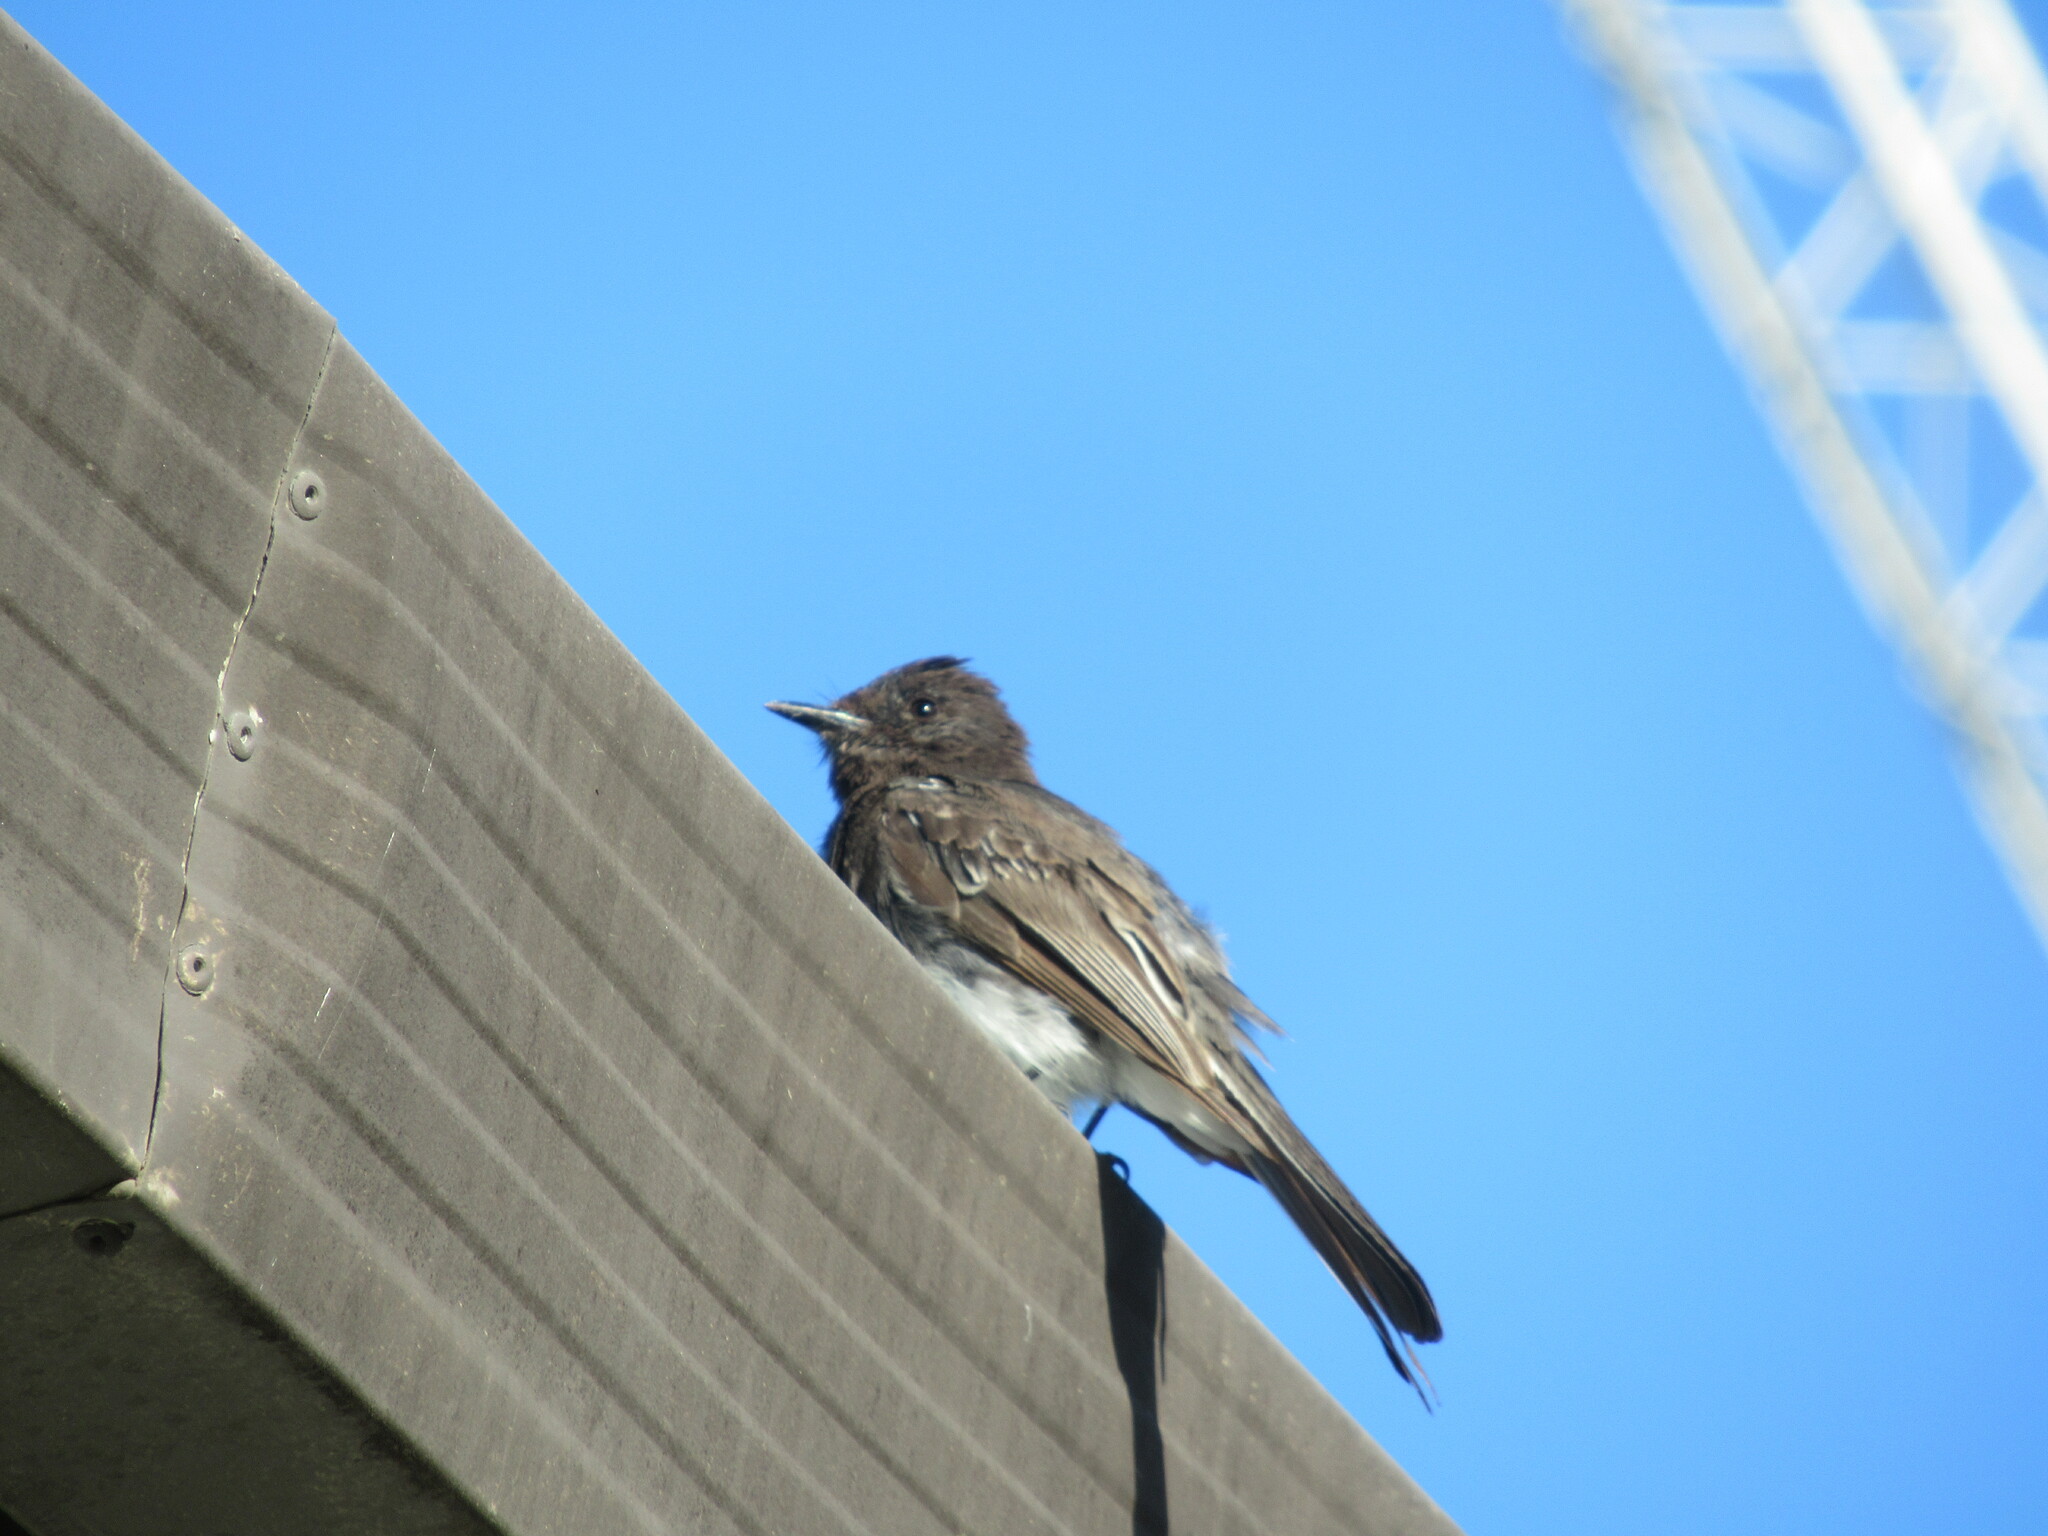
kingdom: Animalia
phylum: Chordata
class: Aves
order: Passeriformes
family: Tyrannidae
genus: Sayornis
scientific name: Sayornis nigricans
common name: Black phoebe
